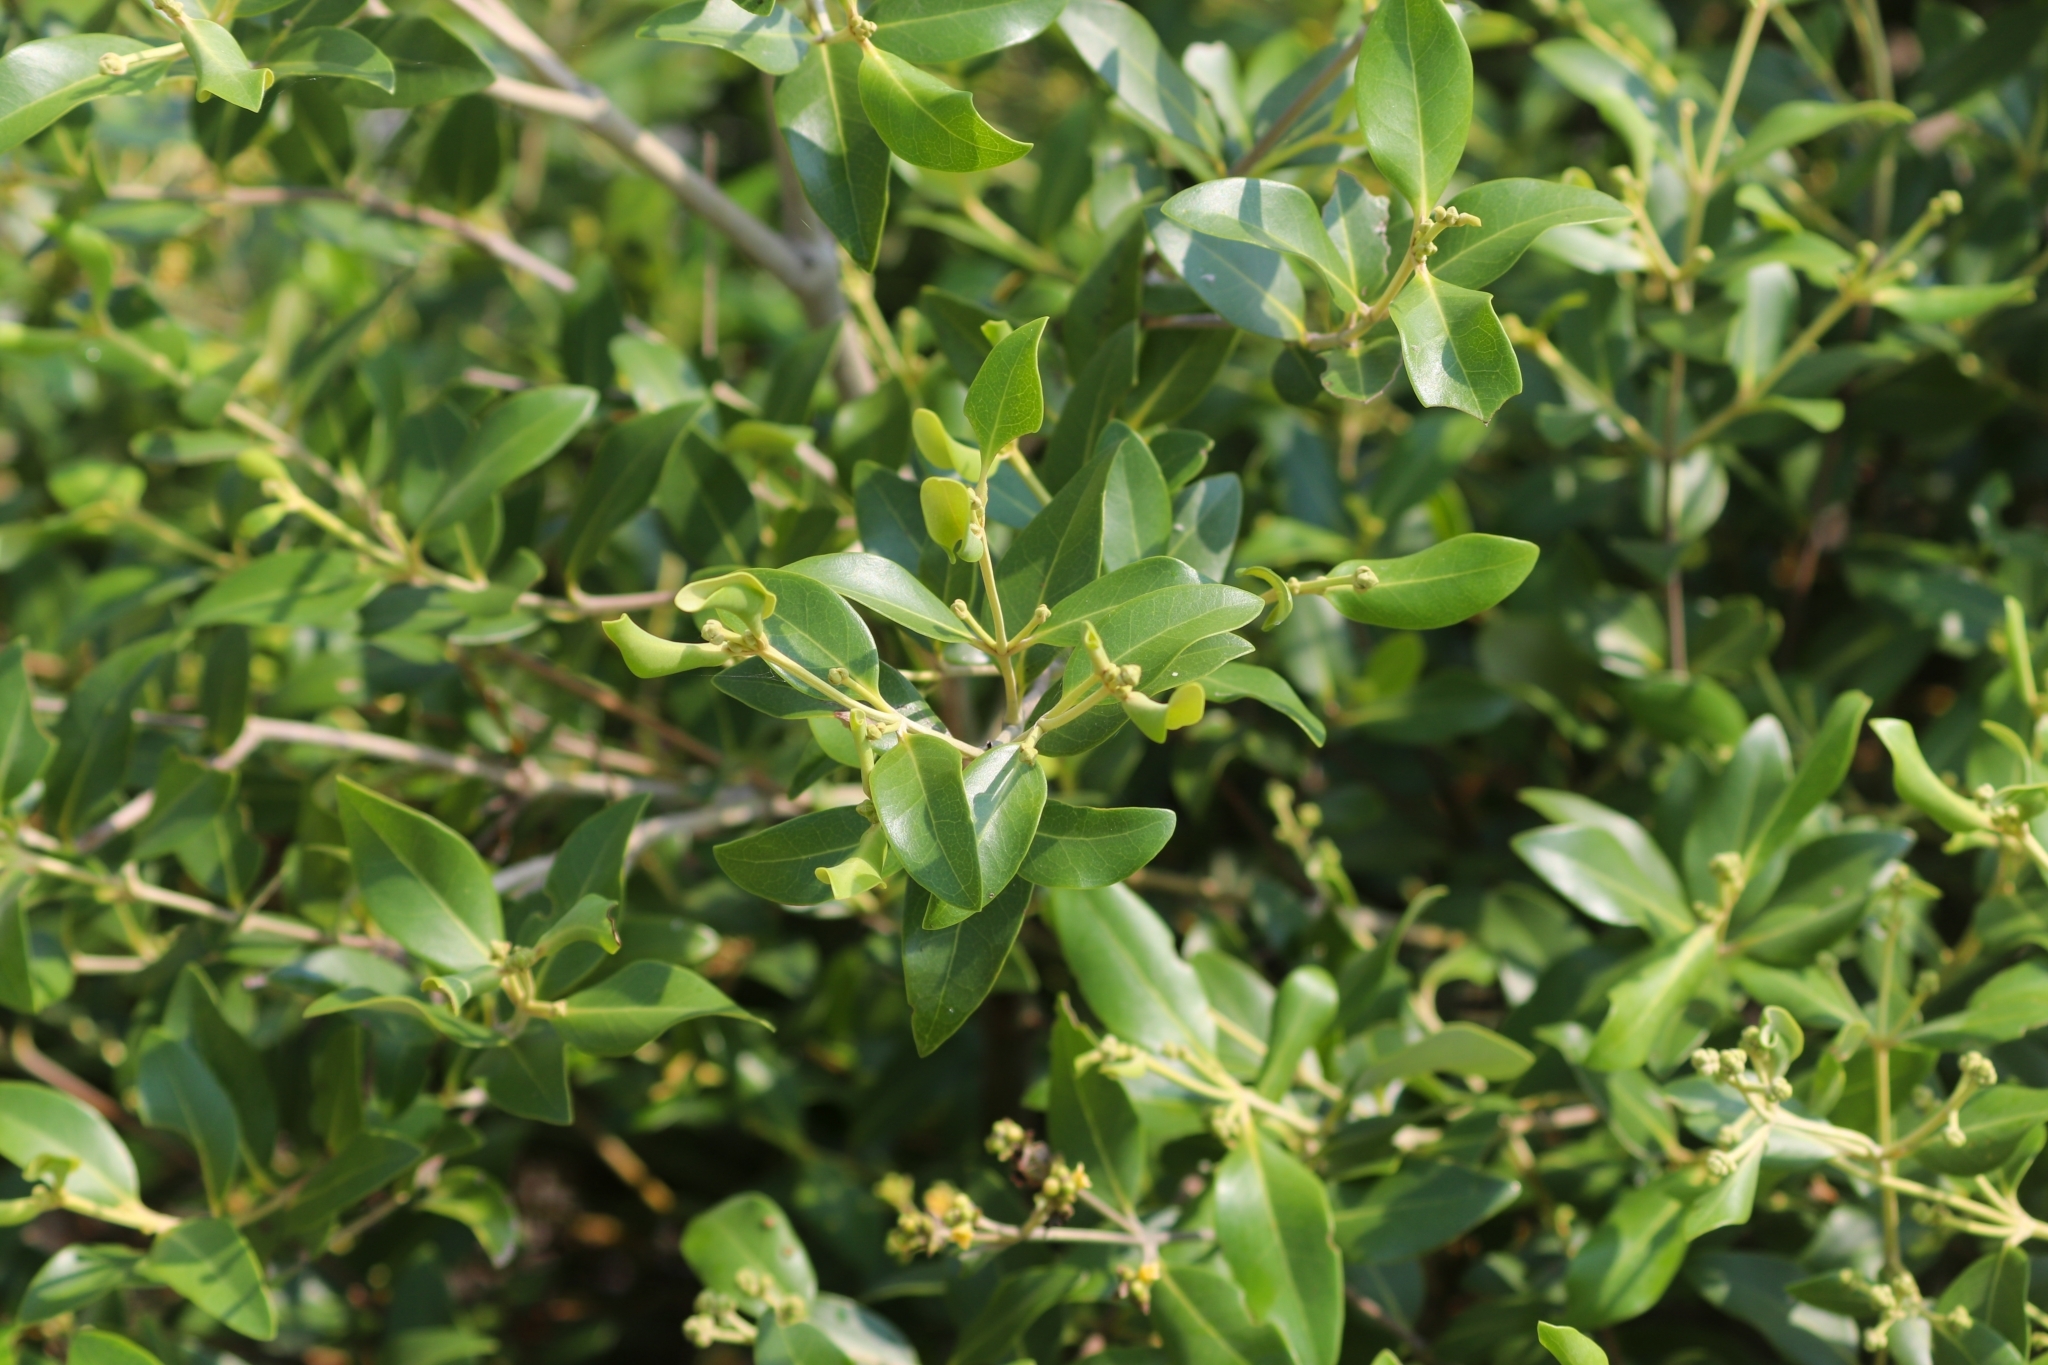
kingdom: Plantae
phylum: Tracheophyta
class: Magnoliopsida
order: Lamiales
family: Acanthaceae
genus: Avicennia
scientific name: Avicennia marina
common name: Gray mangrove
